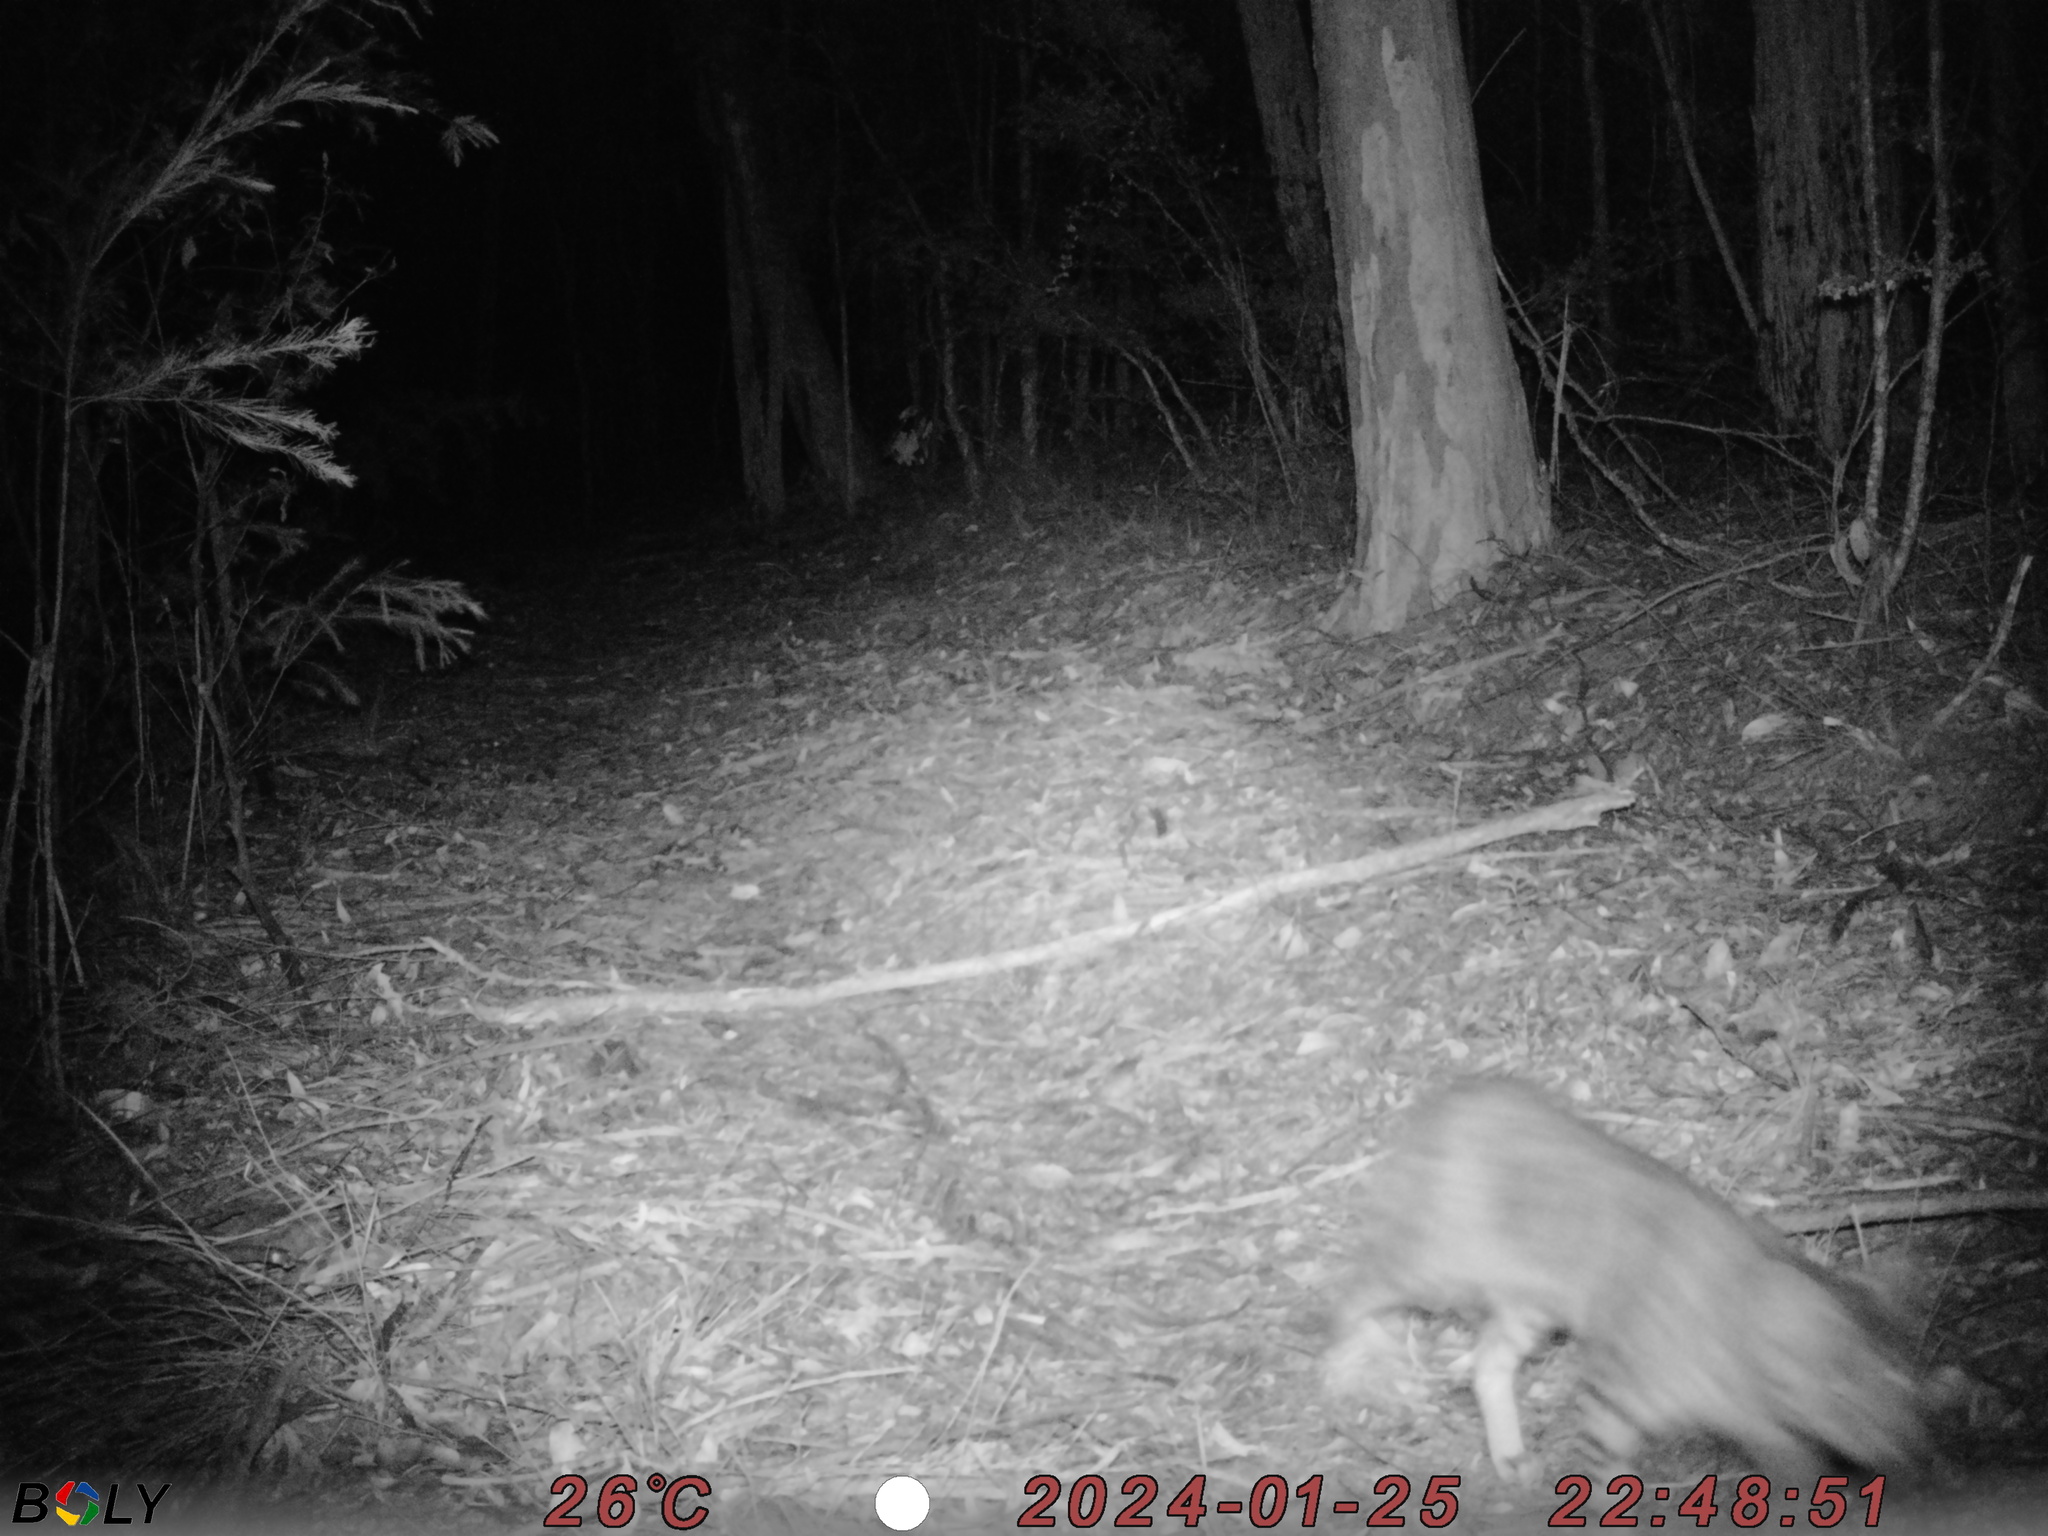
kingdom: Animalia
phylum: Chordata
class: Mammalia
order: Carnivora
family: Felidae
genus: Felis
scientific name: Felis catus
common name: Domestic cat
